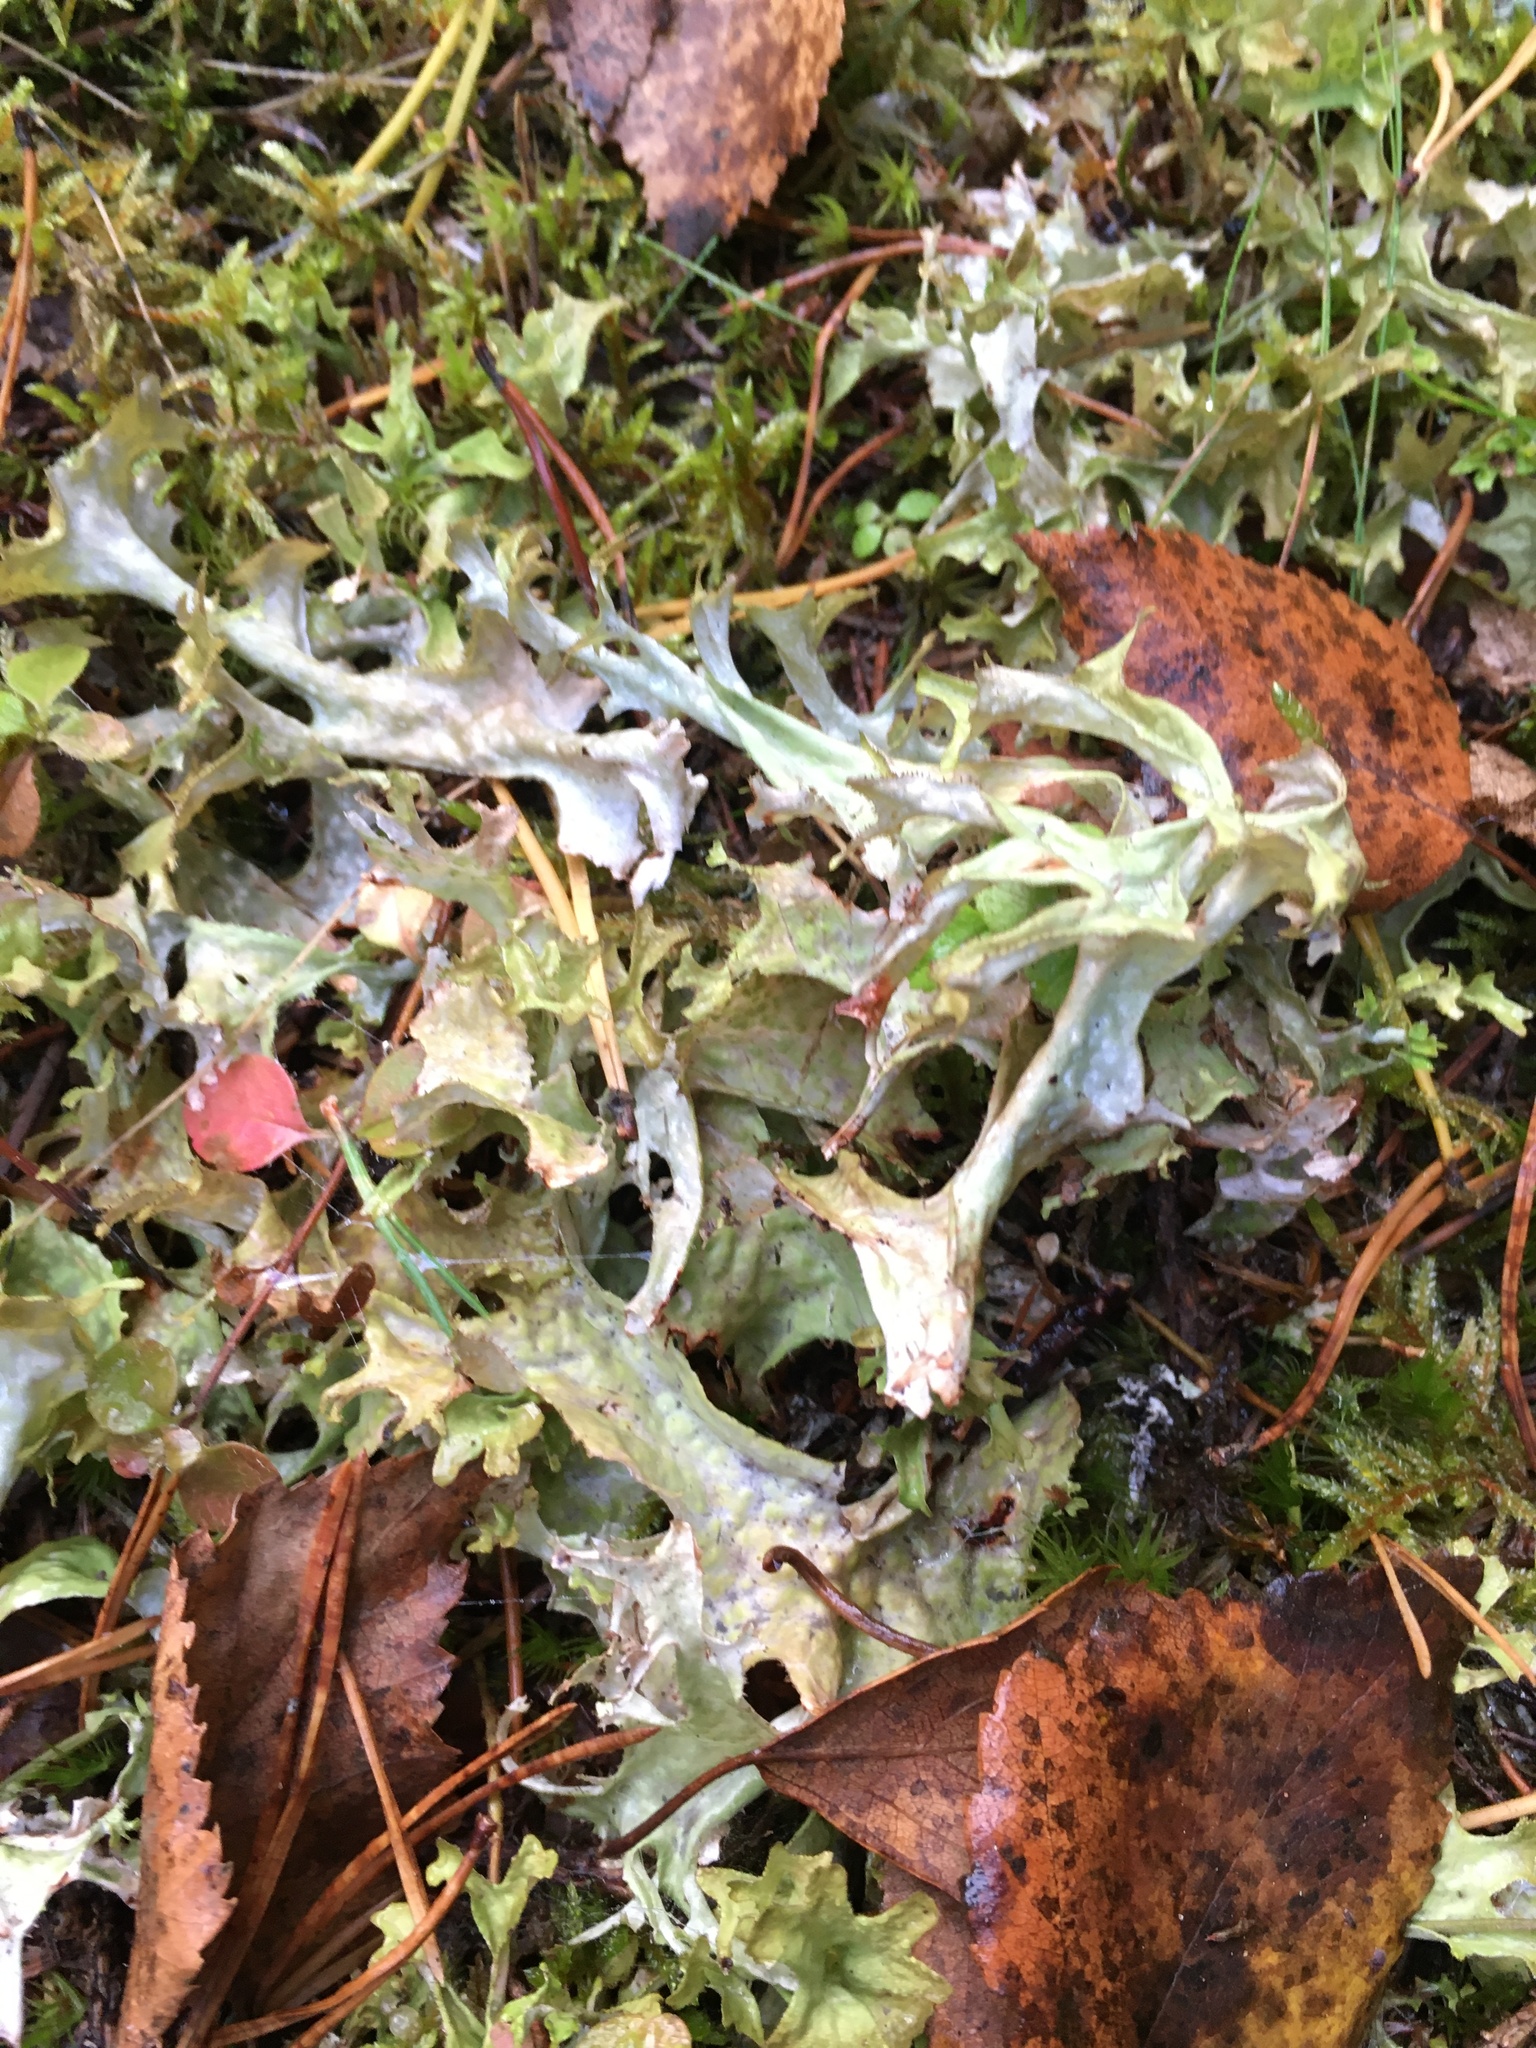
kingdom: Fungi
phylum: Ascomycota
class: Lecanoromycetes
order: Lecanorales
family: Parmeliaceae
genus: Cetraria
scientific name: Cetraria islandica
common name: Iceland lichen
